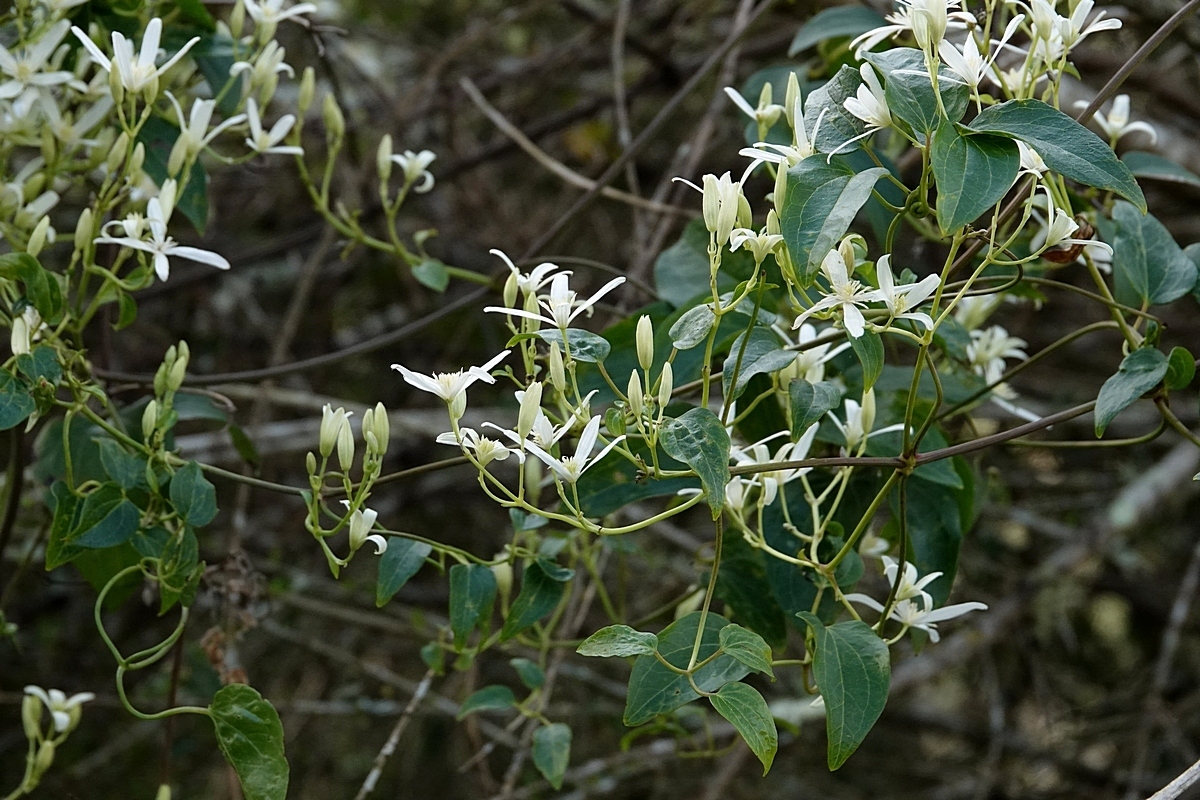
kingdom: Plantae
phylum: Tracheophyta
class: Magnoliopsida
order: Ranunculales
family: Ranunculaceae
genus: Clematis
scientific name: Clematis glycinoides
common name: Forest clematis
